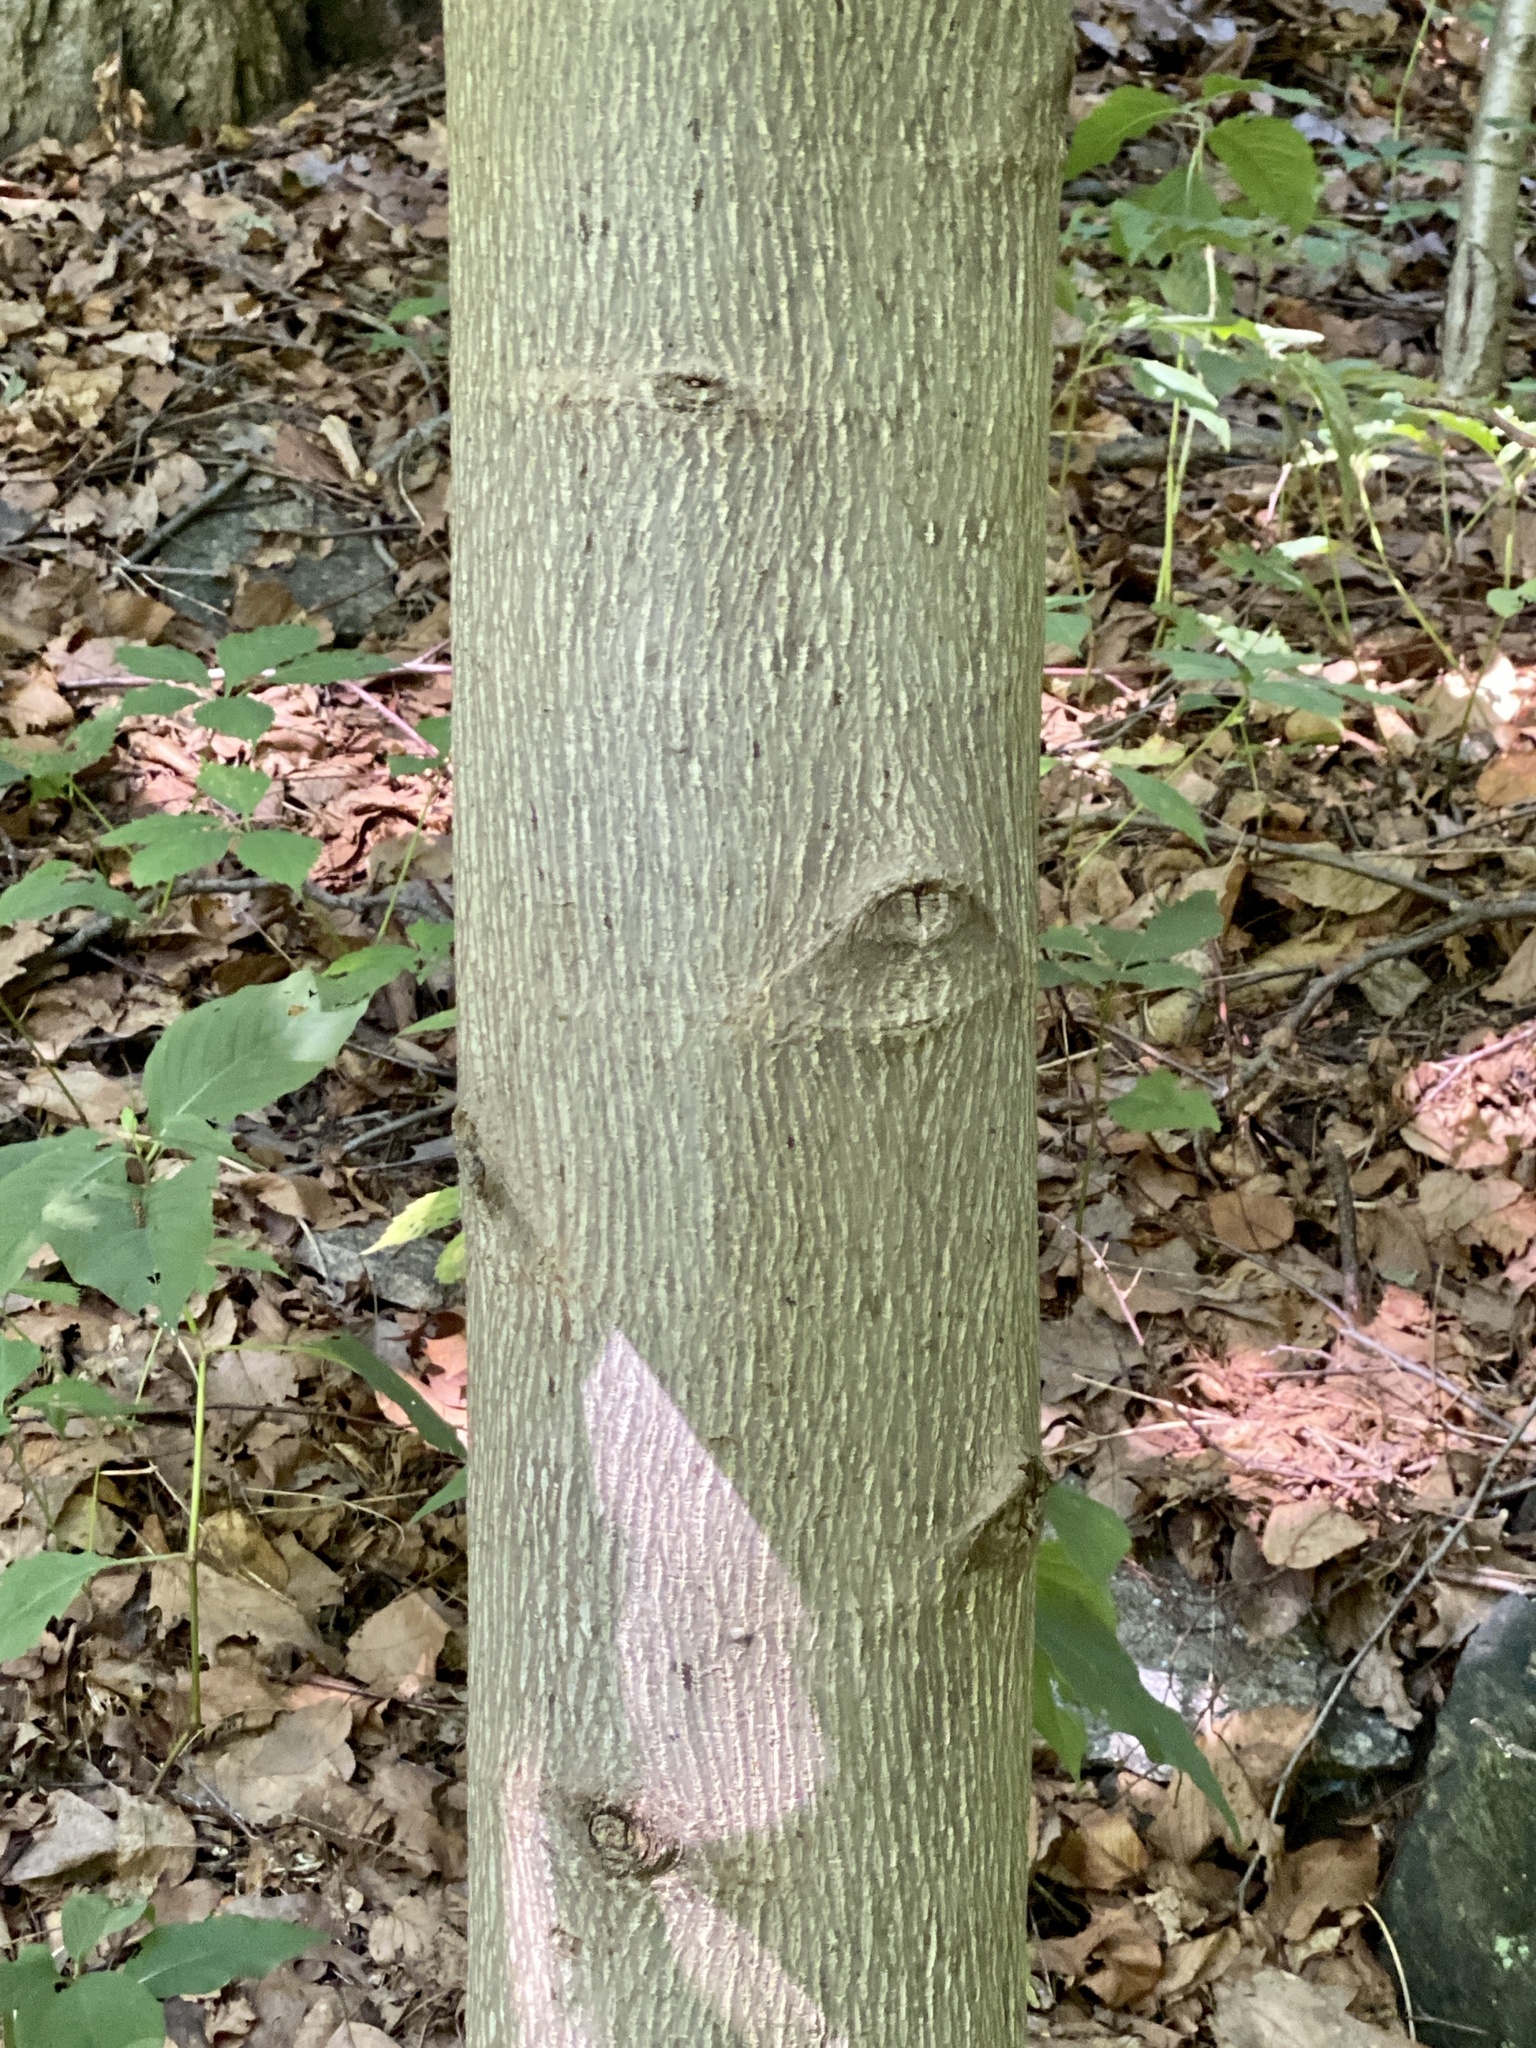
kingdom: Plantae
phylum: Tracheophyta
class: Magnoliopsida
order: Magnoliales
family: Magnoliaceae
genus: Liriodendron
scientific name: Liriodendron tulipifera
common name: Tulip tree
